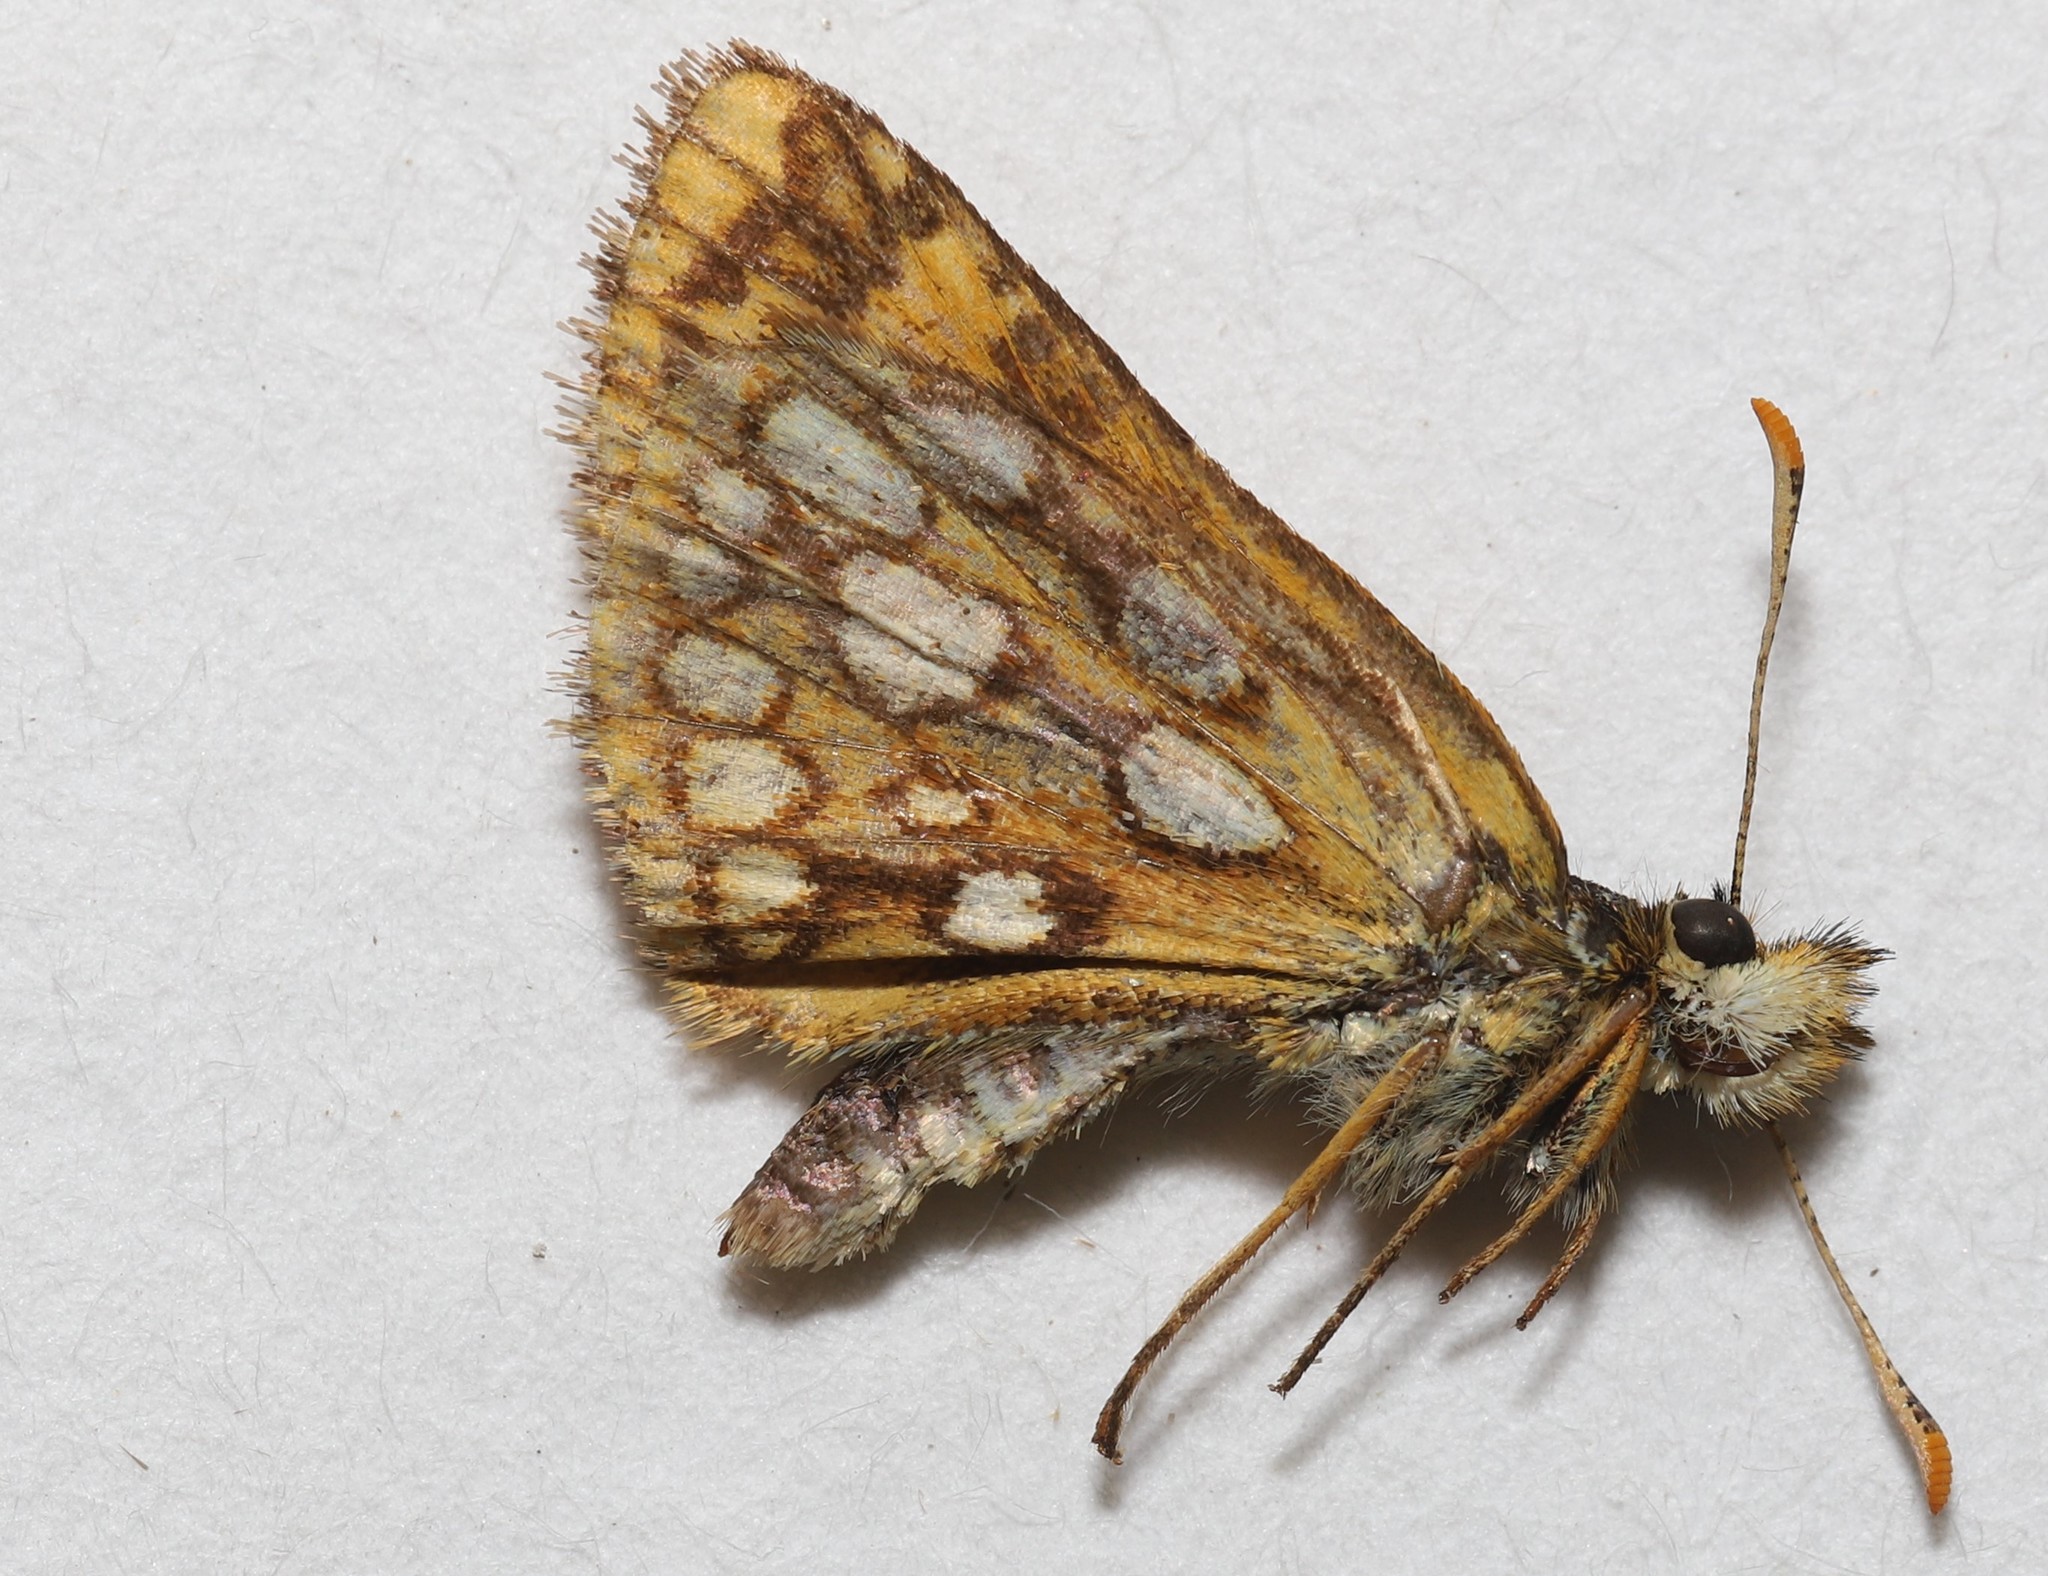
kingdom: Animalia
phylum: Arthropoda
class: Insecta
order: Lepidoptera
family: Hesperiidae
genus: Carterocephalus
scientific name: Carterocephalus mandan
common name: Arctic skipperling
